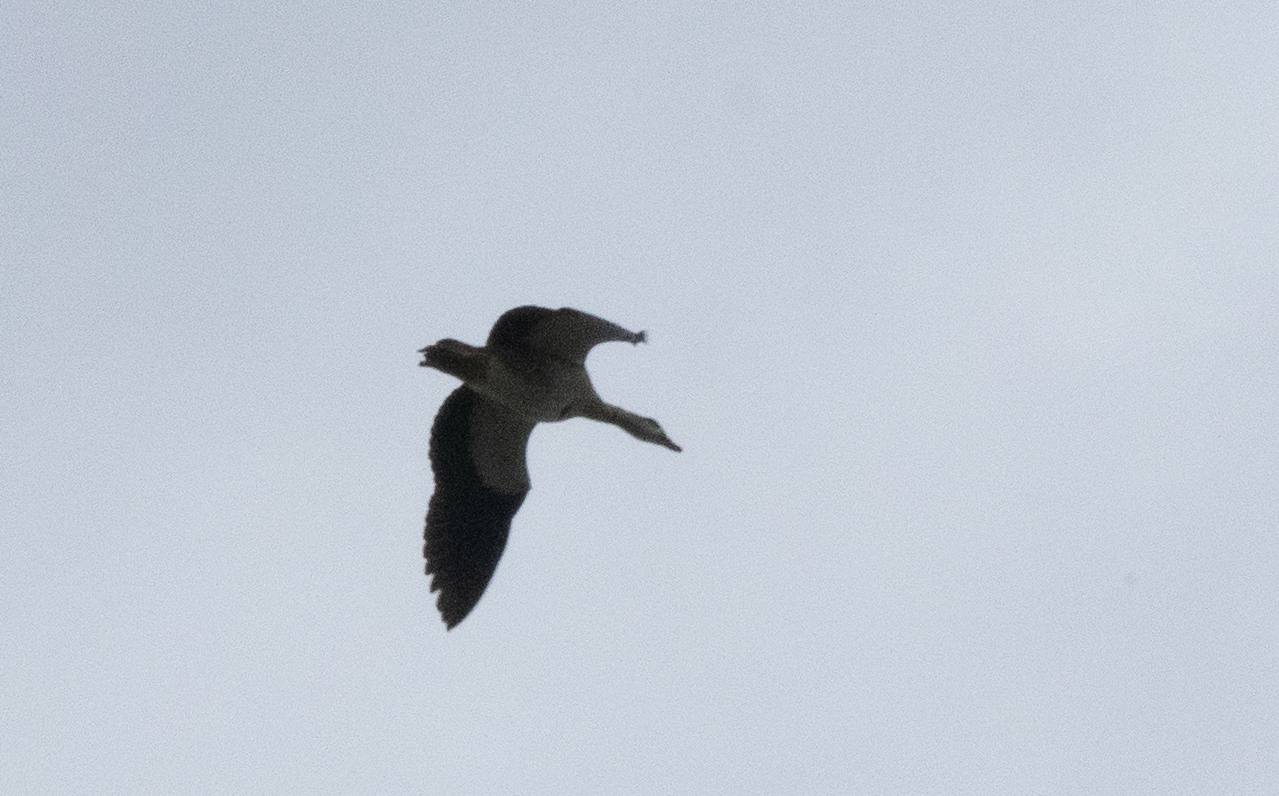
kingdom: Animalia
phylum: Chordata
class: Aves
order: Anseriformes
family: Anatidae
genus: Alopochen
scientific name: Alopochen aegyptiaca
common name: Egyptian goose
